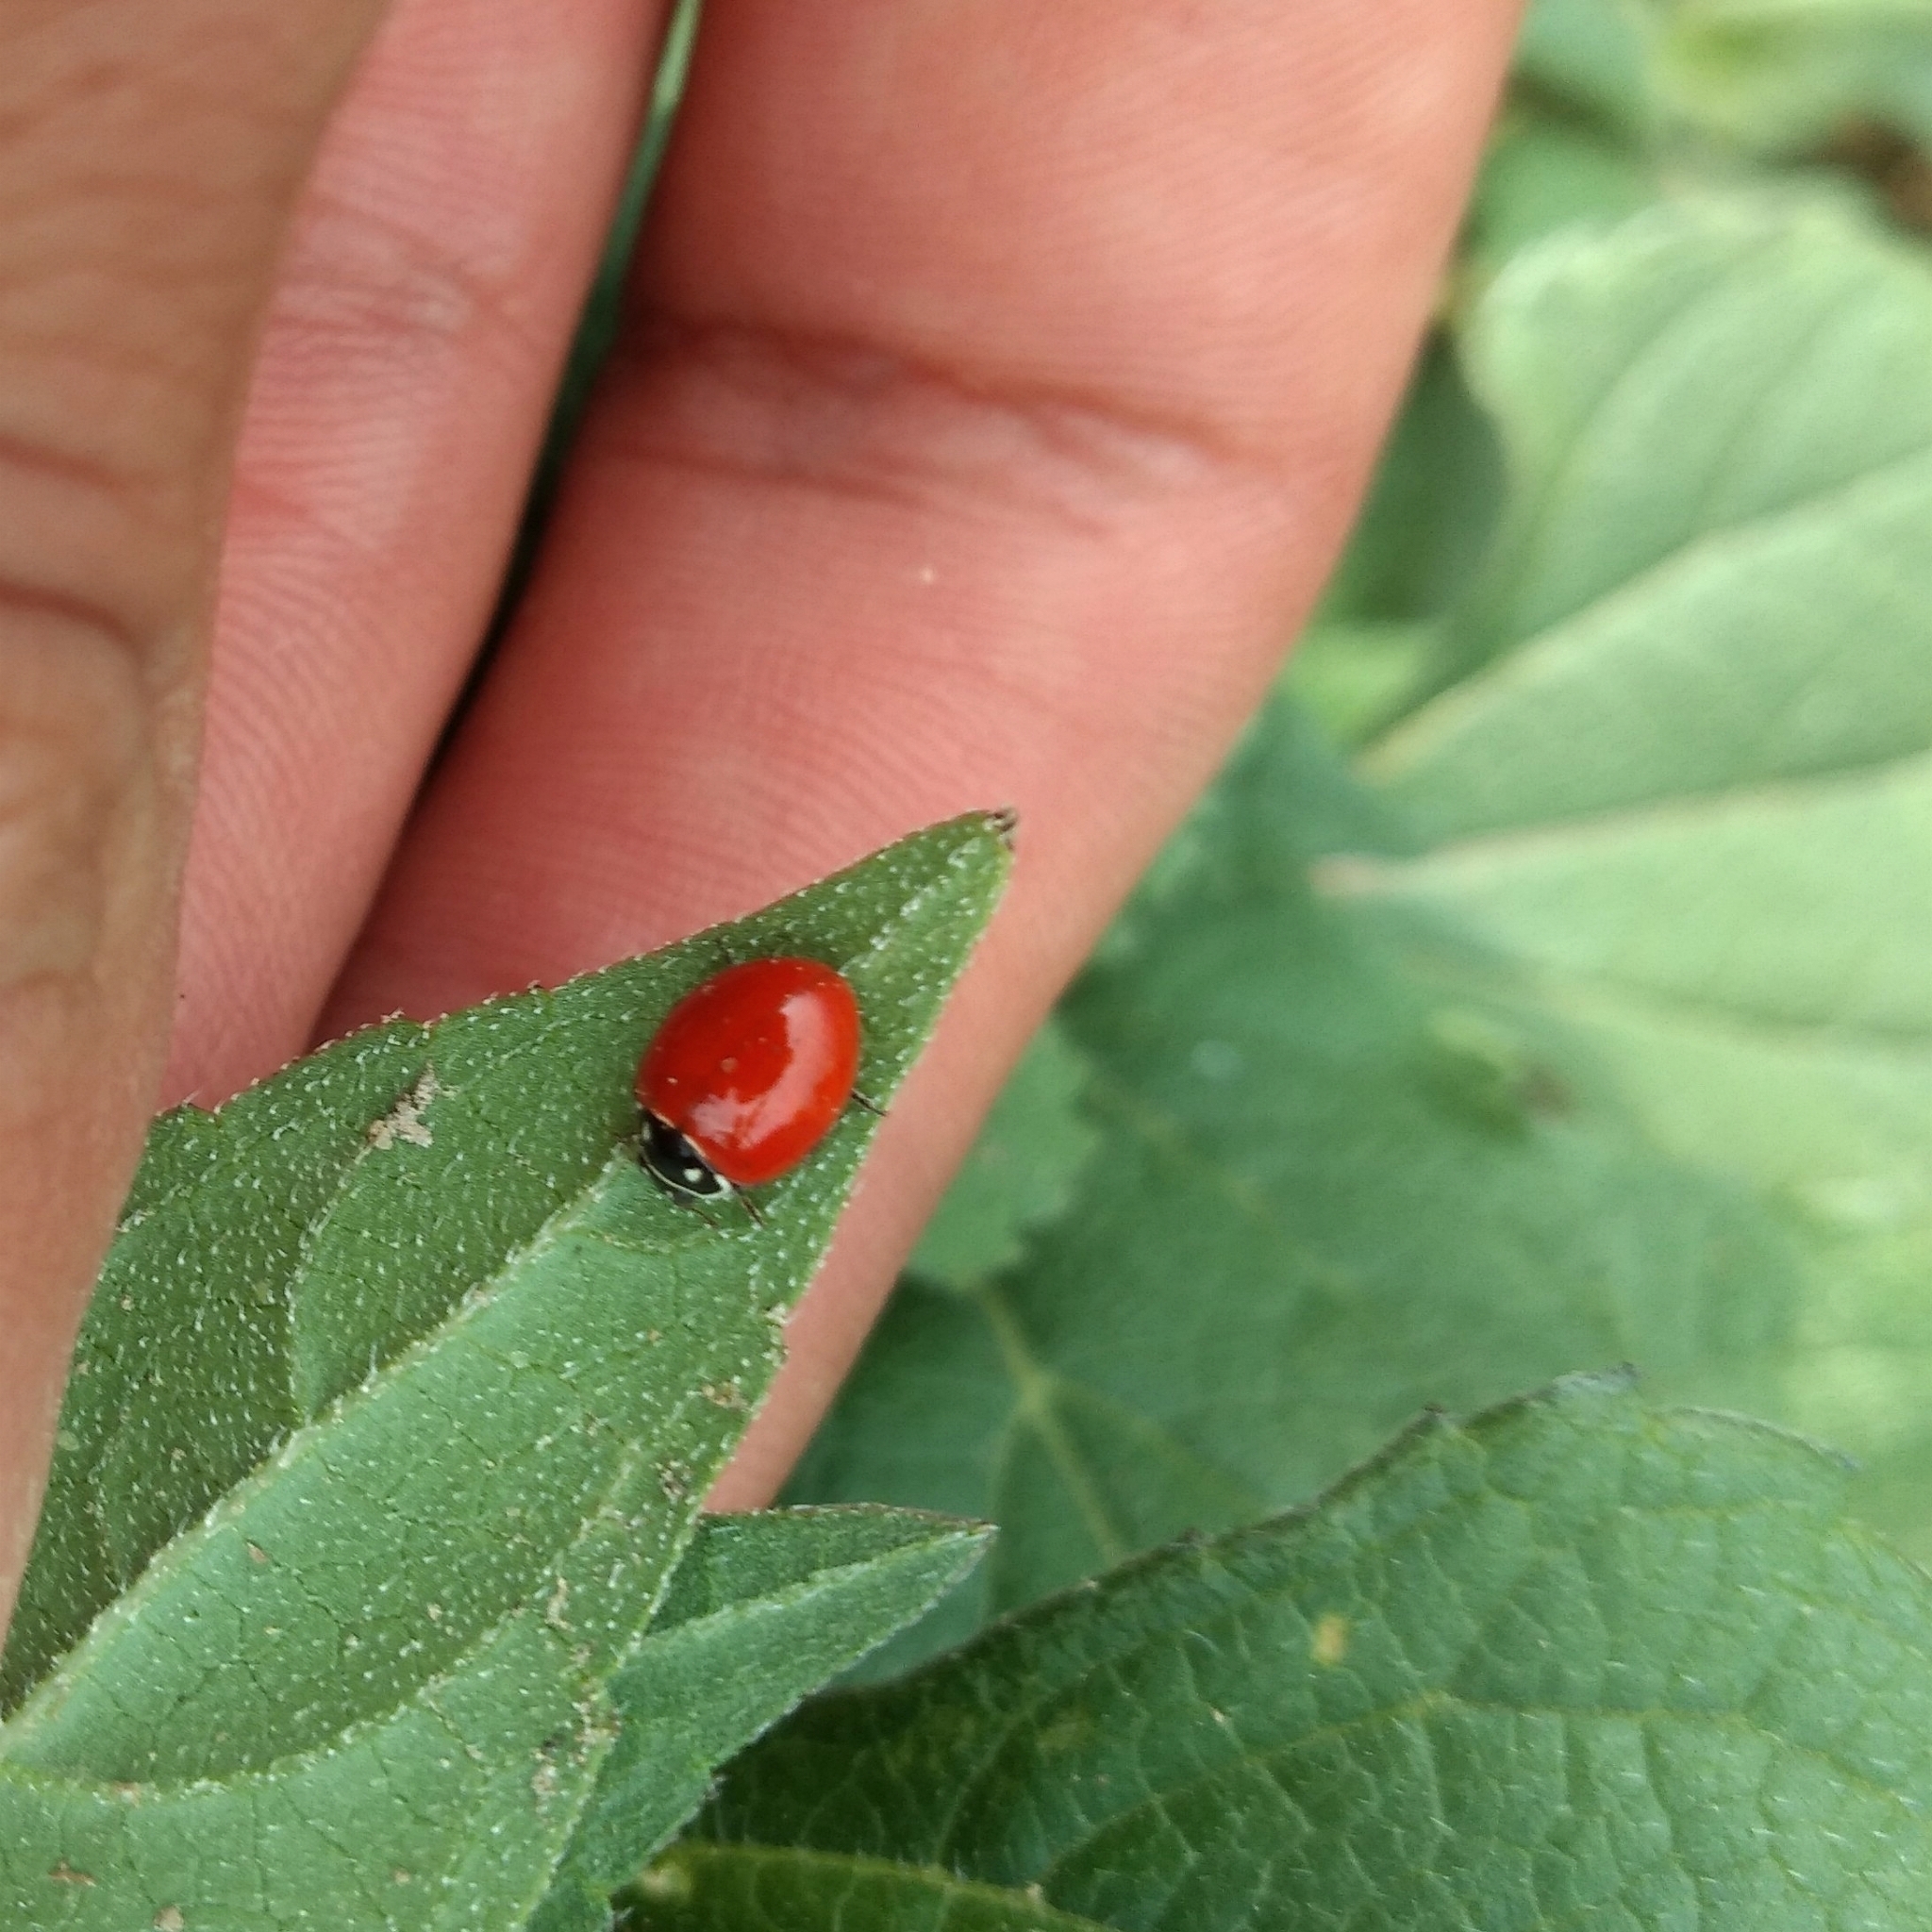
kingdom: Animalia
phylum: Arthropoda
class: Insecta
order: Coleoptera
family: Coccinellidae
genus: Cycloneda
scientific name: Cycloneda emarginata
